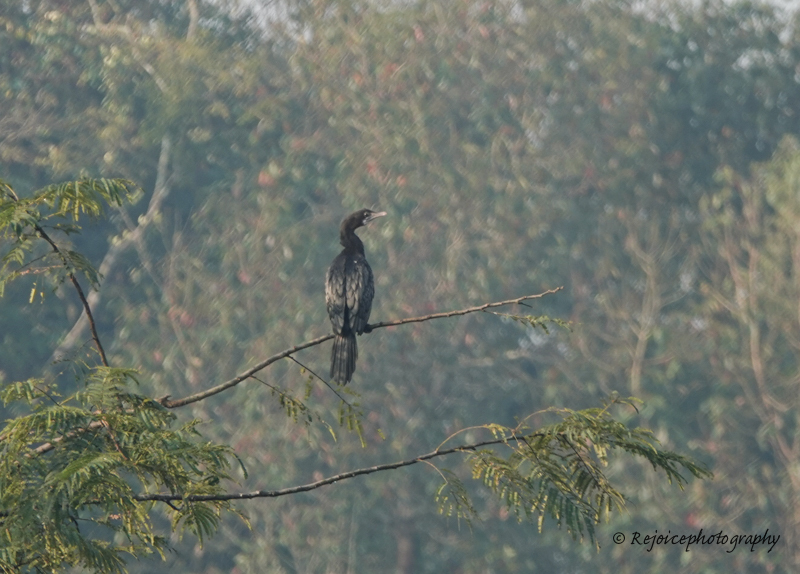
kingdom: Animalia
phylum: Chordata
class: Aves
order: Suliformes
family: Phalacrocoracidae
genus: Microcarbo
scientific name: Microcarbo niger
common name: Little cormorant
